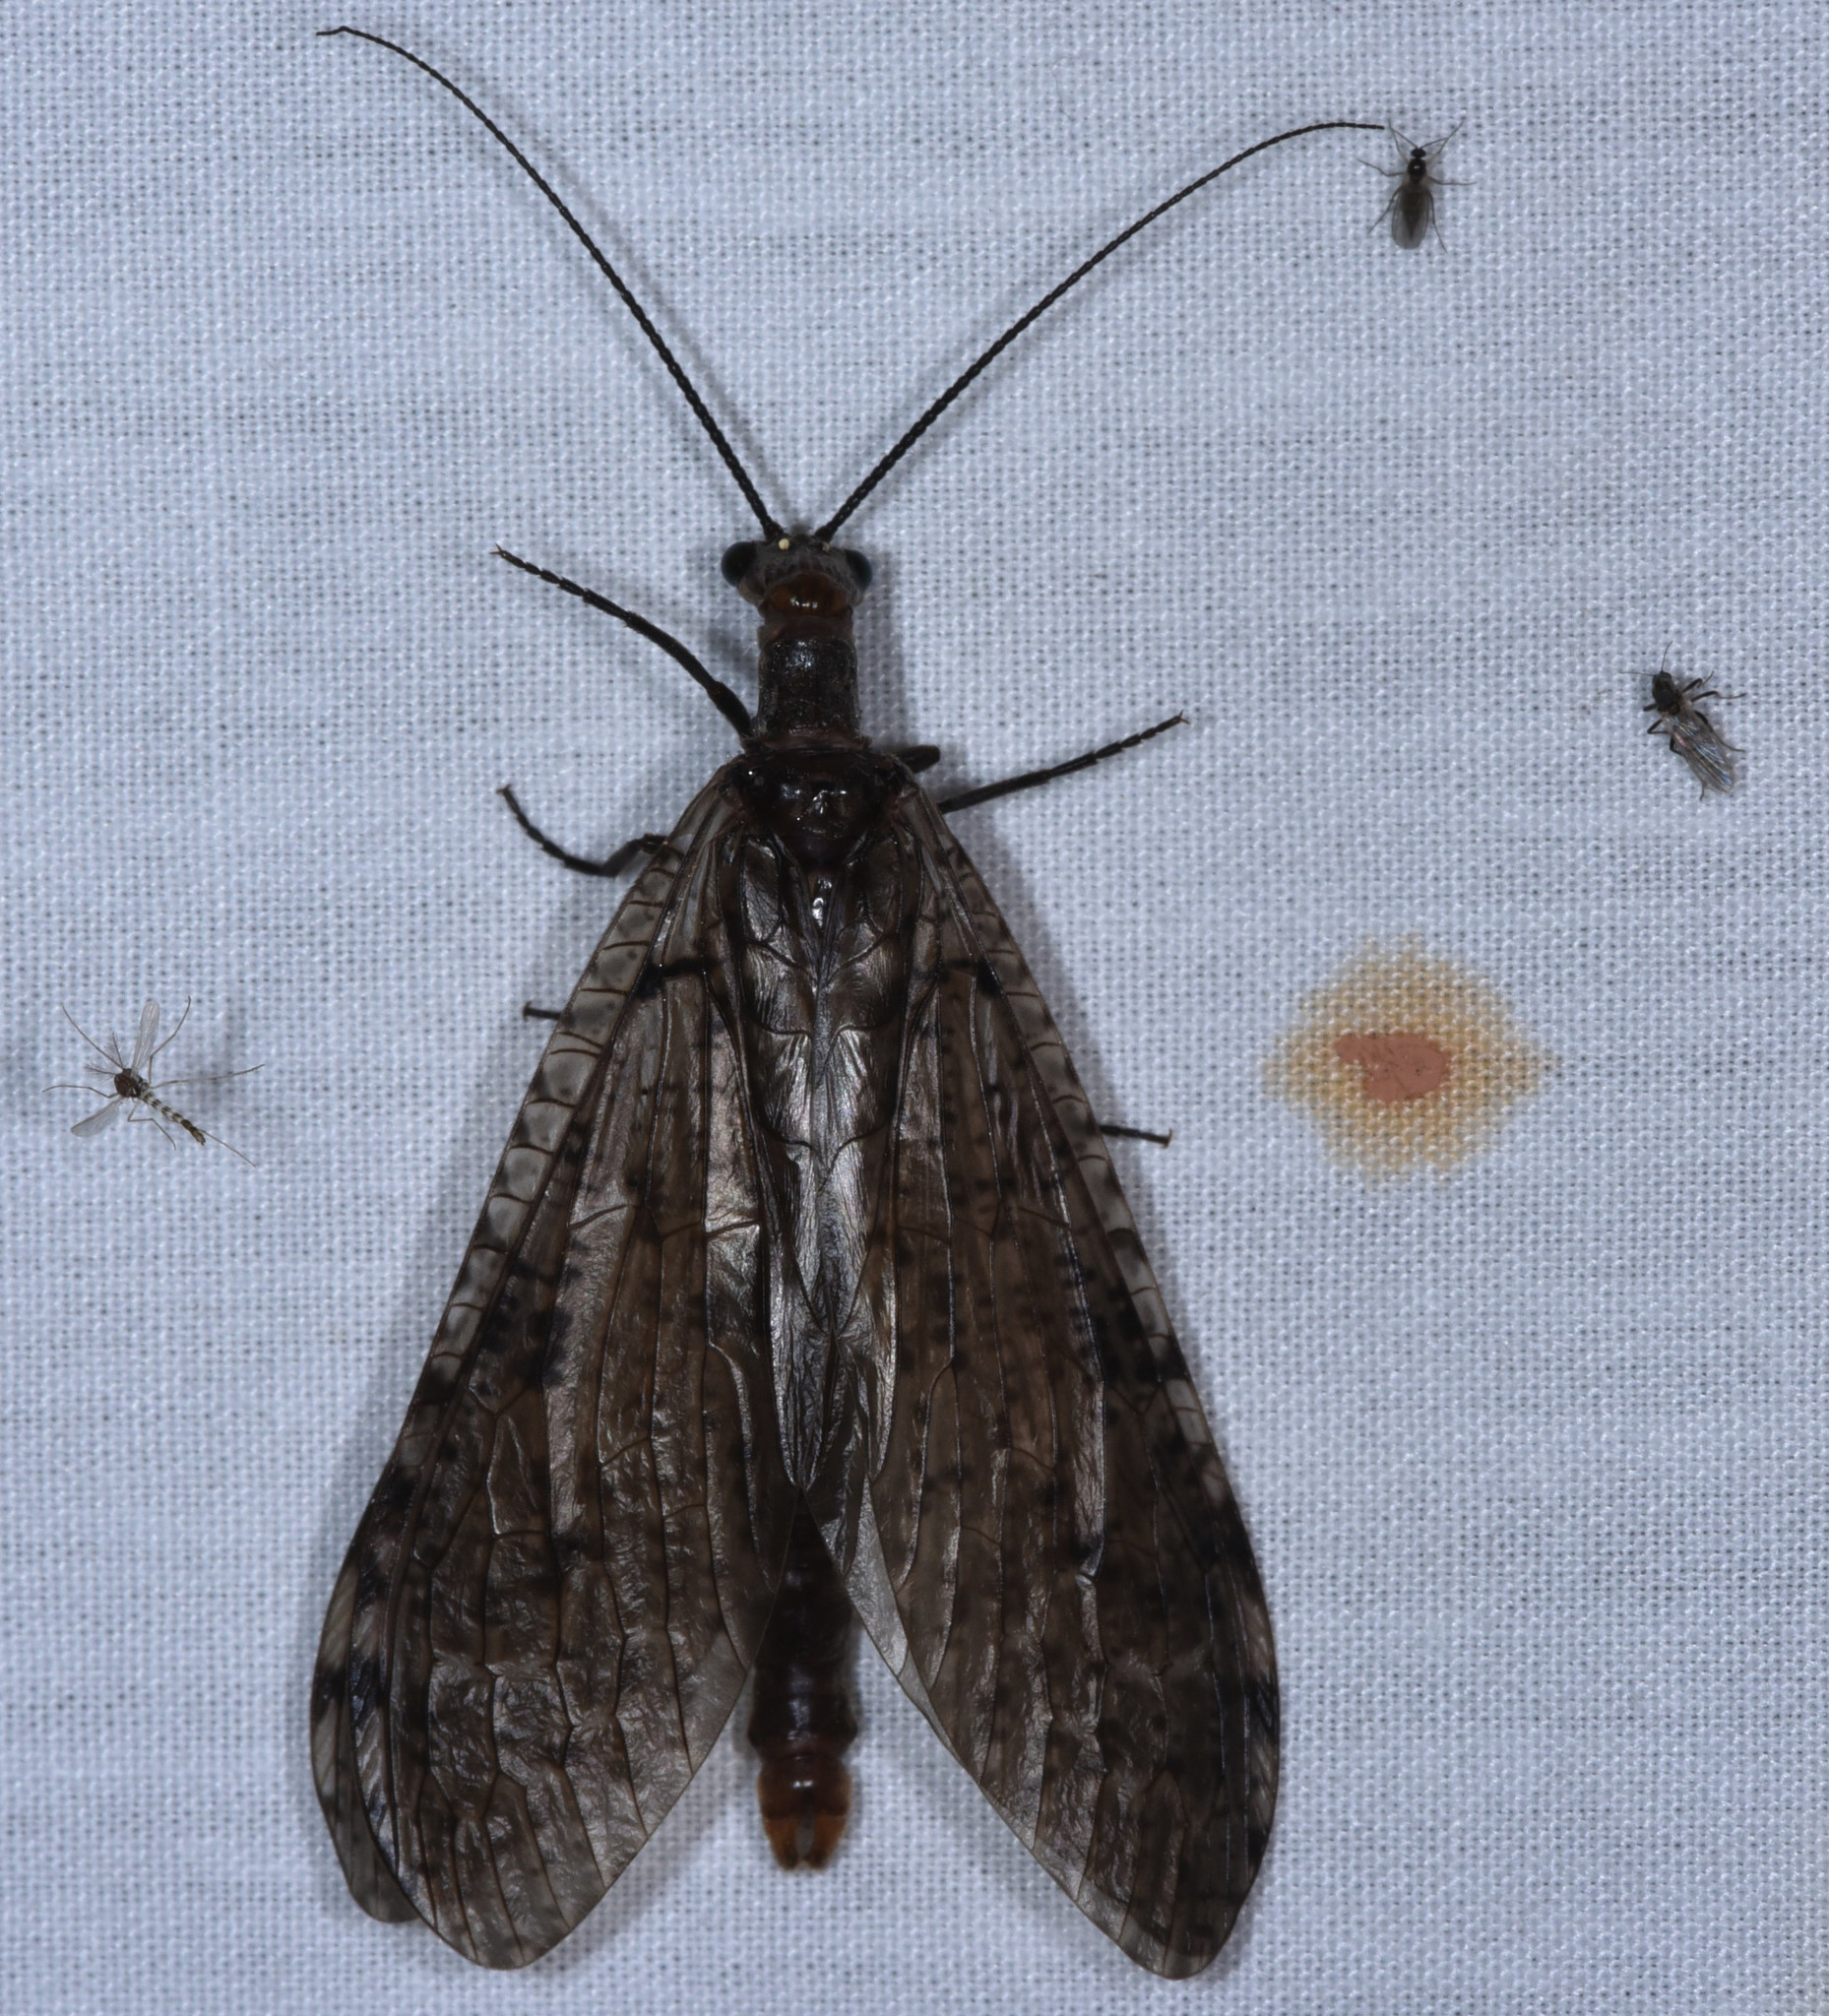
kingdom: Animalia
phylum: Arthropoda
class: Insecta
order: Megaloptera
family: Corydalidae
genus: Protochauliodes
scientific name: Protochauliodes spenceri
